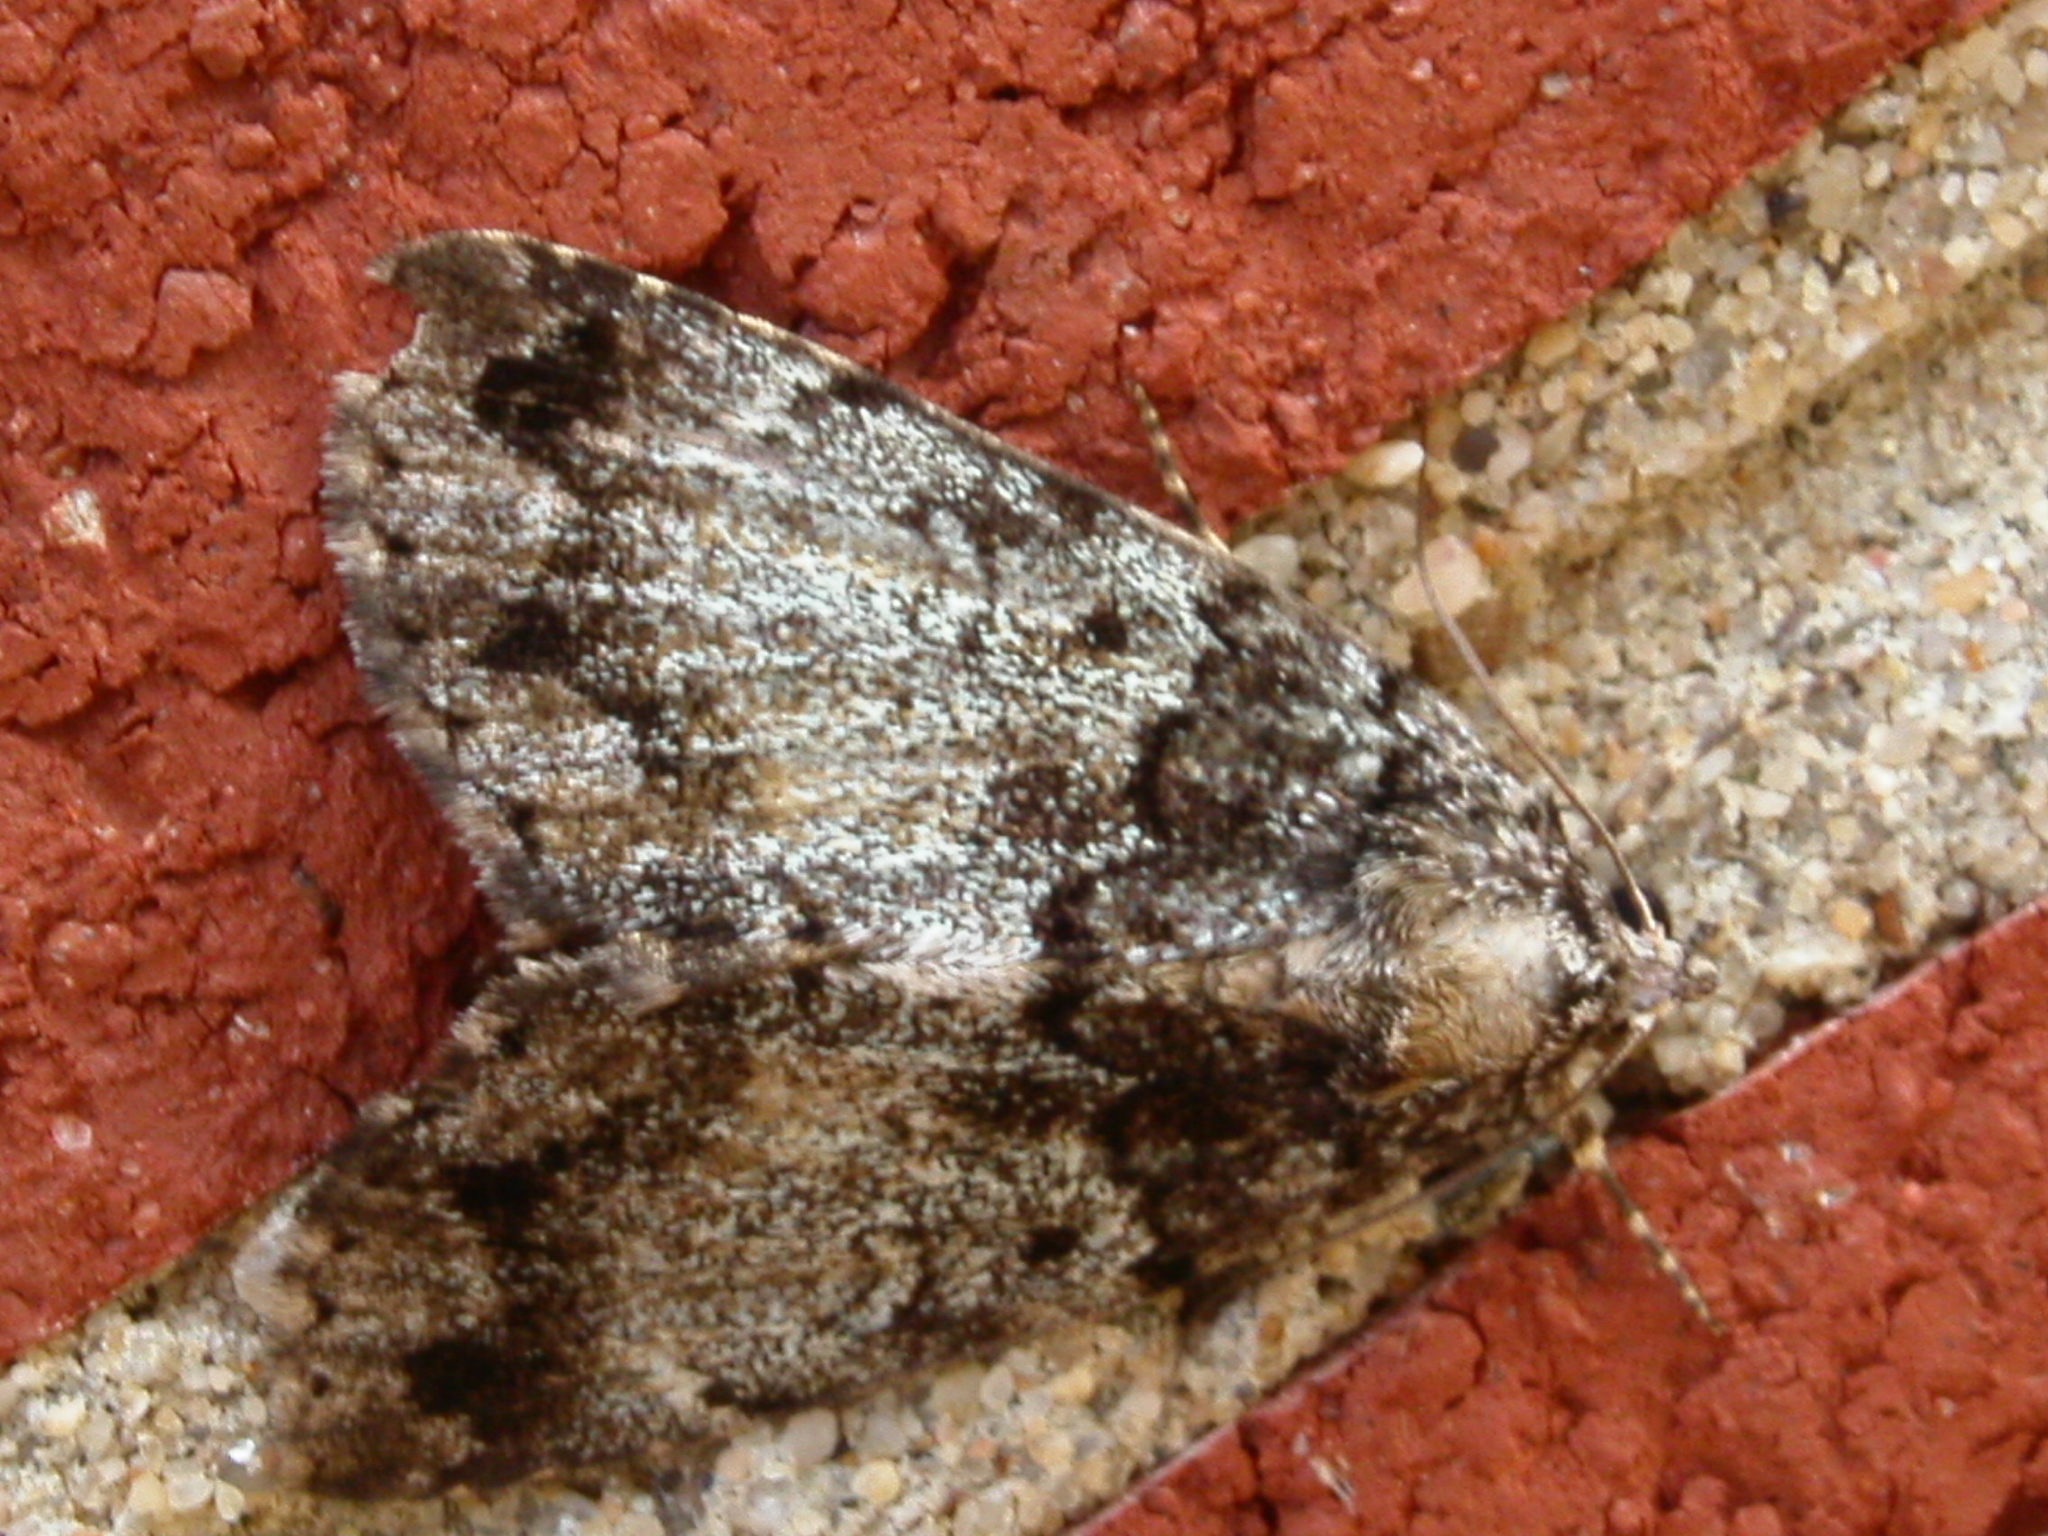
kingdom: Animalia
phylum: Arthropoda
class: Insecta
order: Lepidoptera
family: Erebidae
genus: Allotria
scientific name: Allotria elonympha
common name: False underwing
